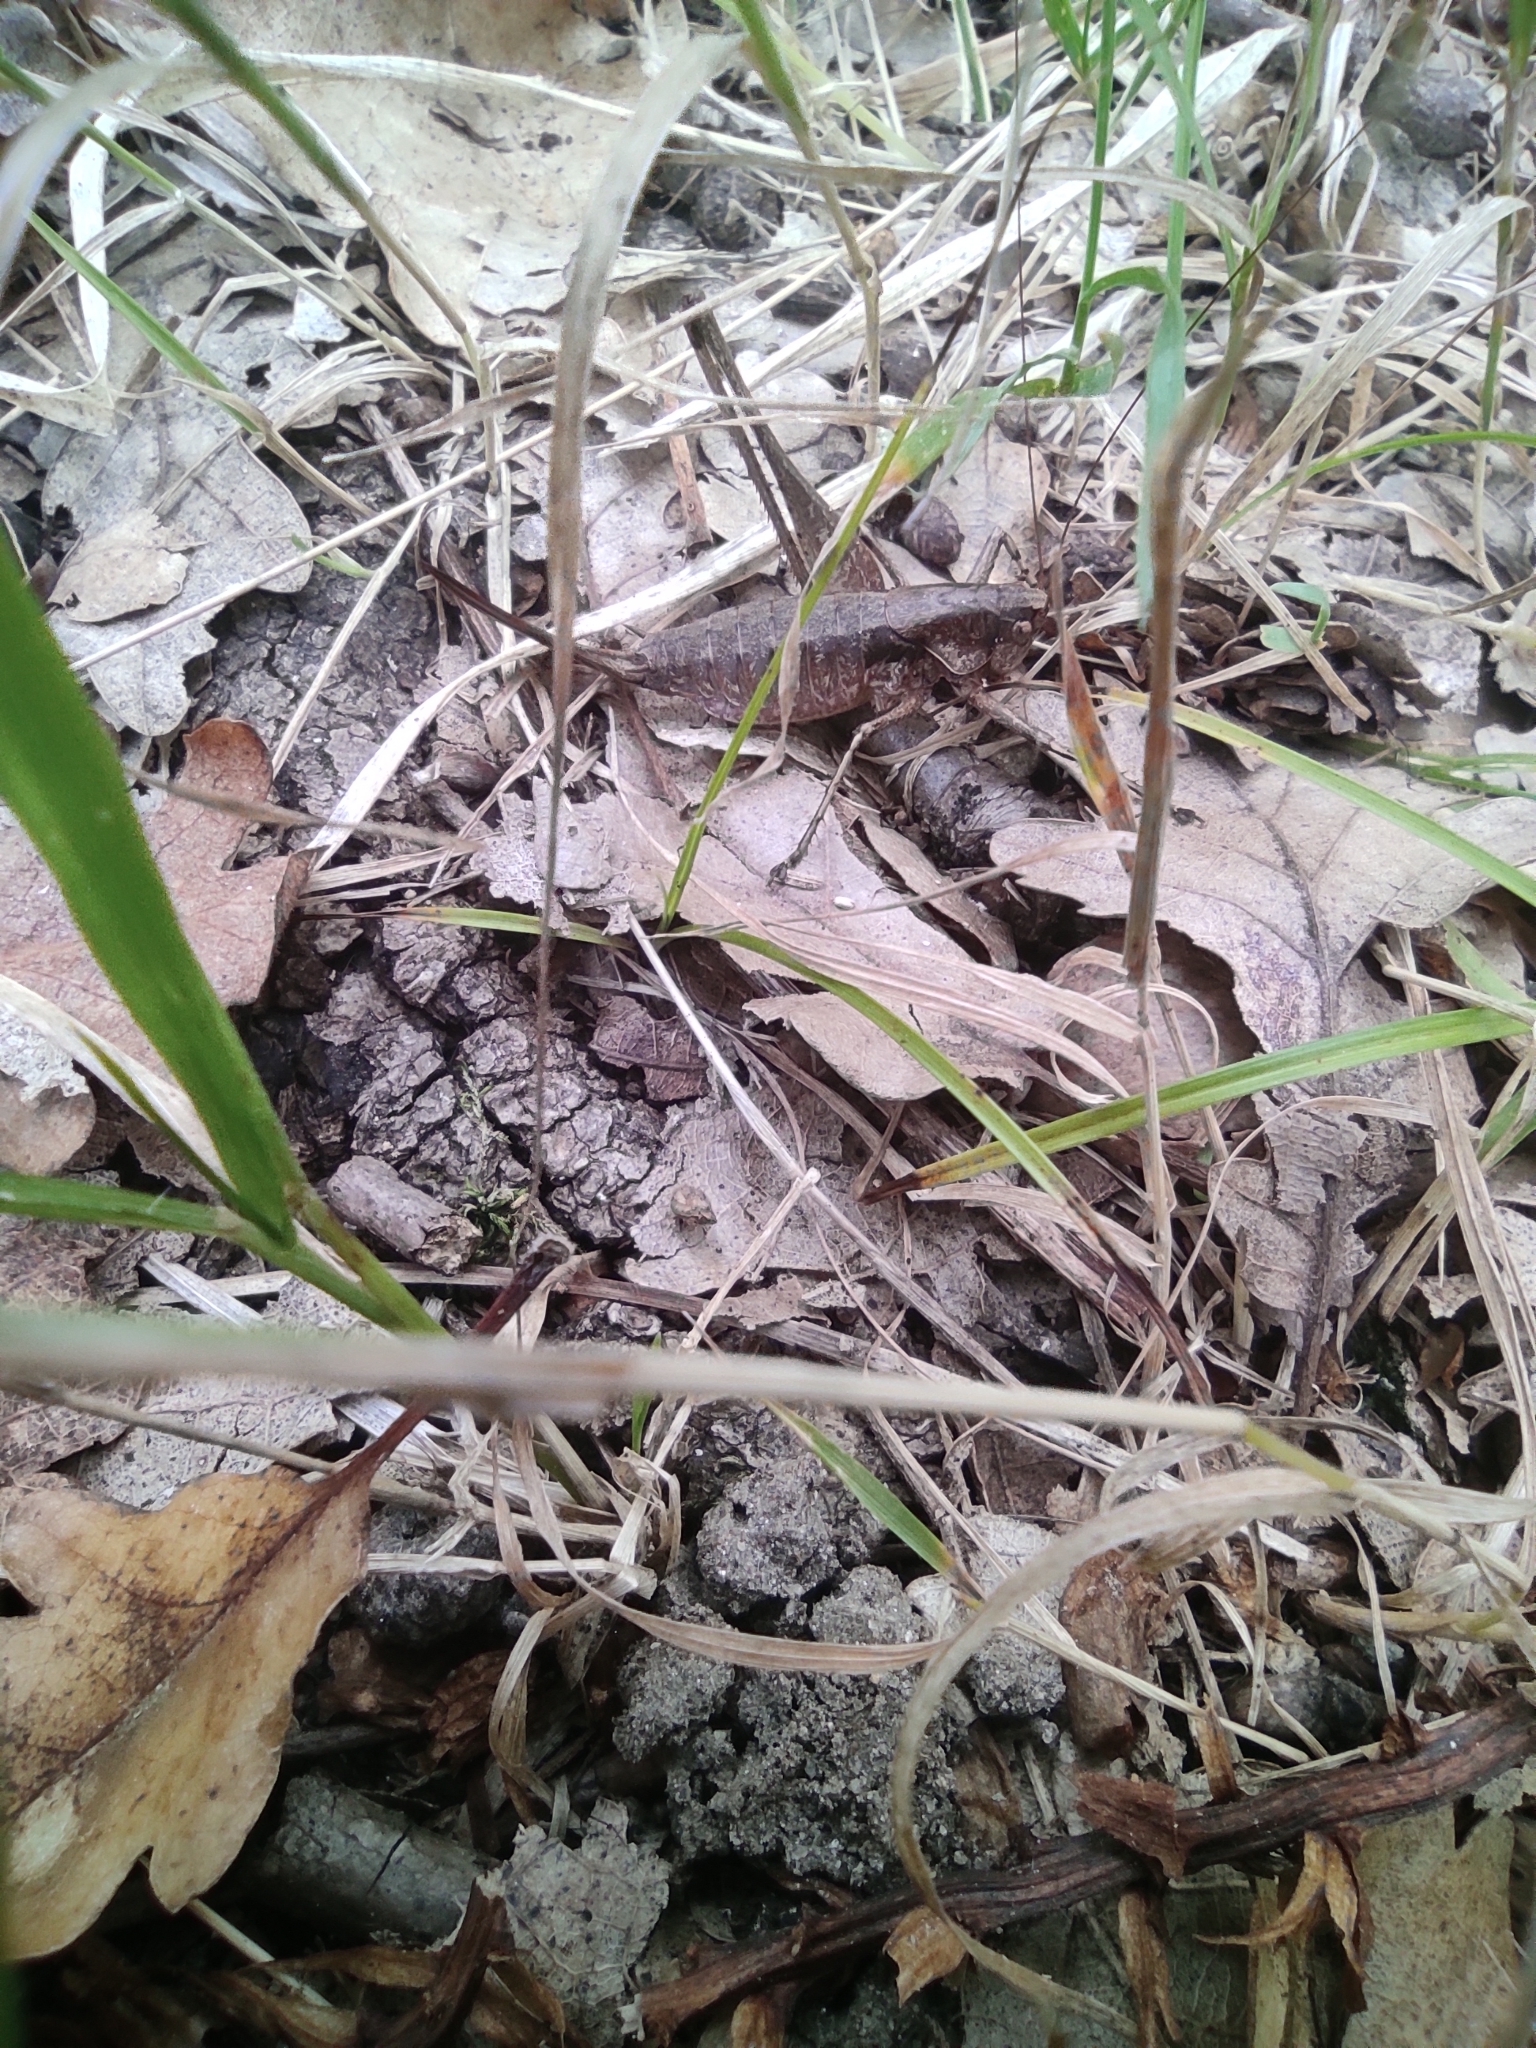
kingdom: Animalia
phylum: Arthropoda
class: Insecta
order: Orthoptera
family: Tettigoniidae
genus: Rhacocleis
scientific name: Rhacocleis poneli
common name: Ponel's bush-cricket
